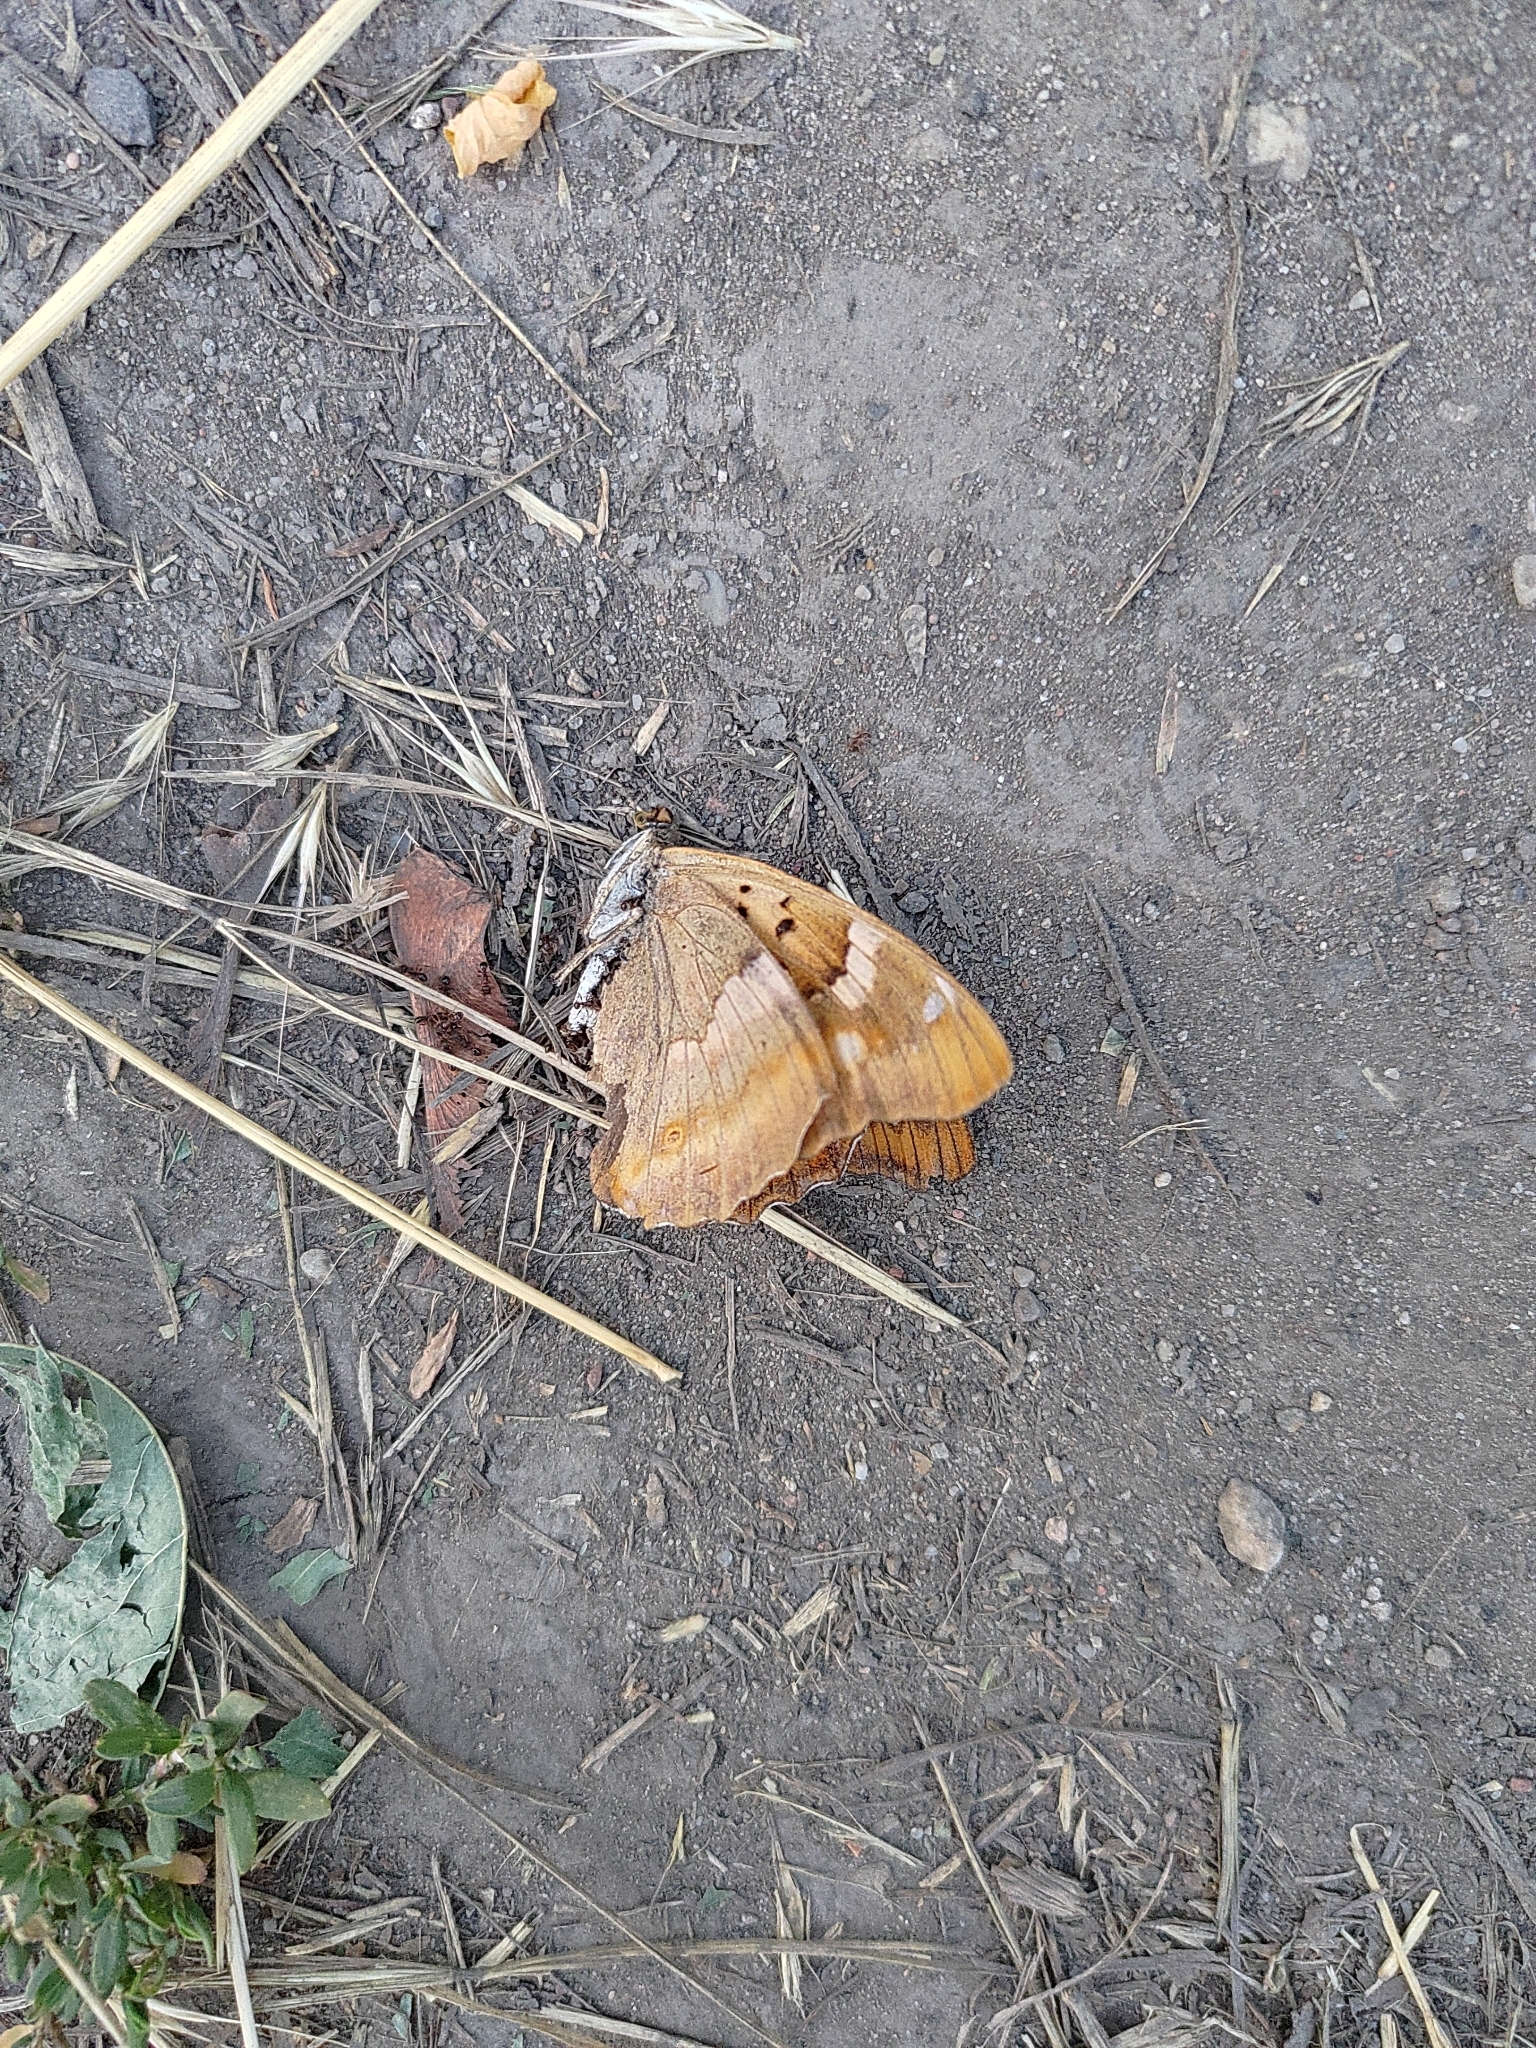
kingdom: Animalia
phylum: Arthropoda
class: Insecta
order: Lepidoptera
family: Nymphalidae
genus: Apatura
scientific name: Apatura ilia
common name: Lesser purple emperor
